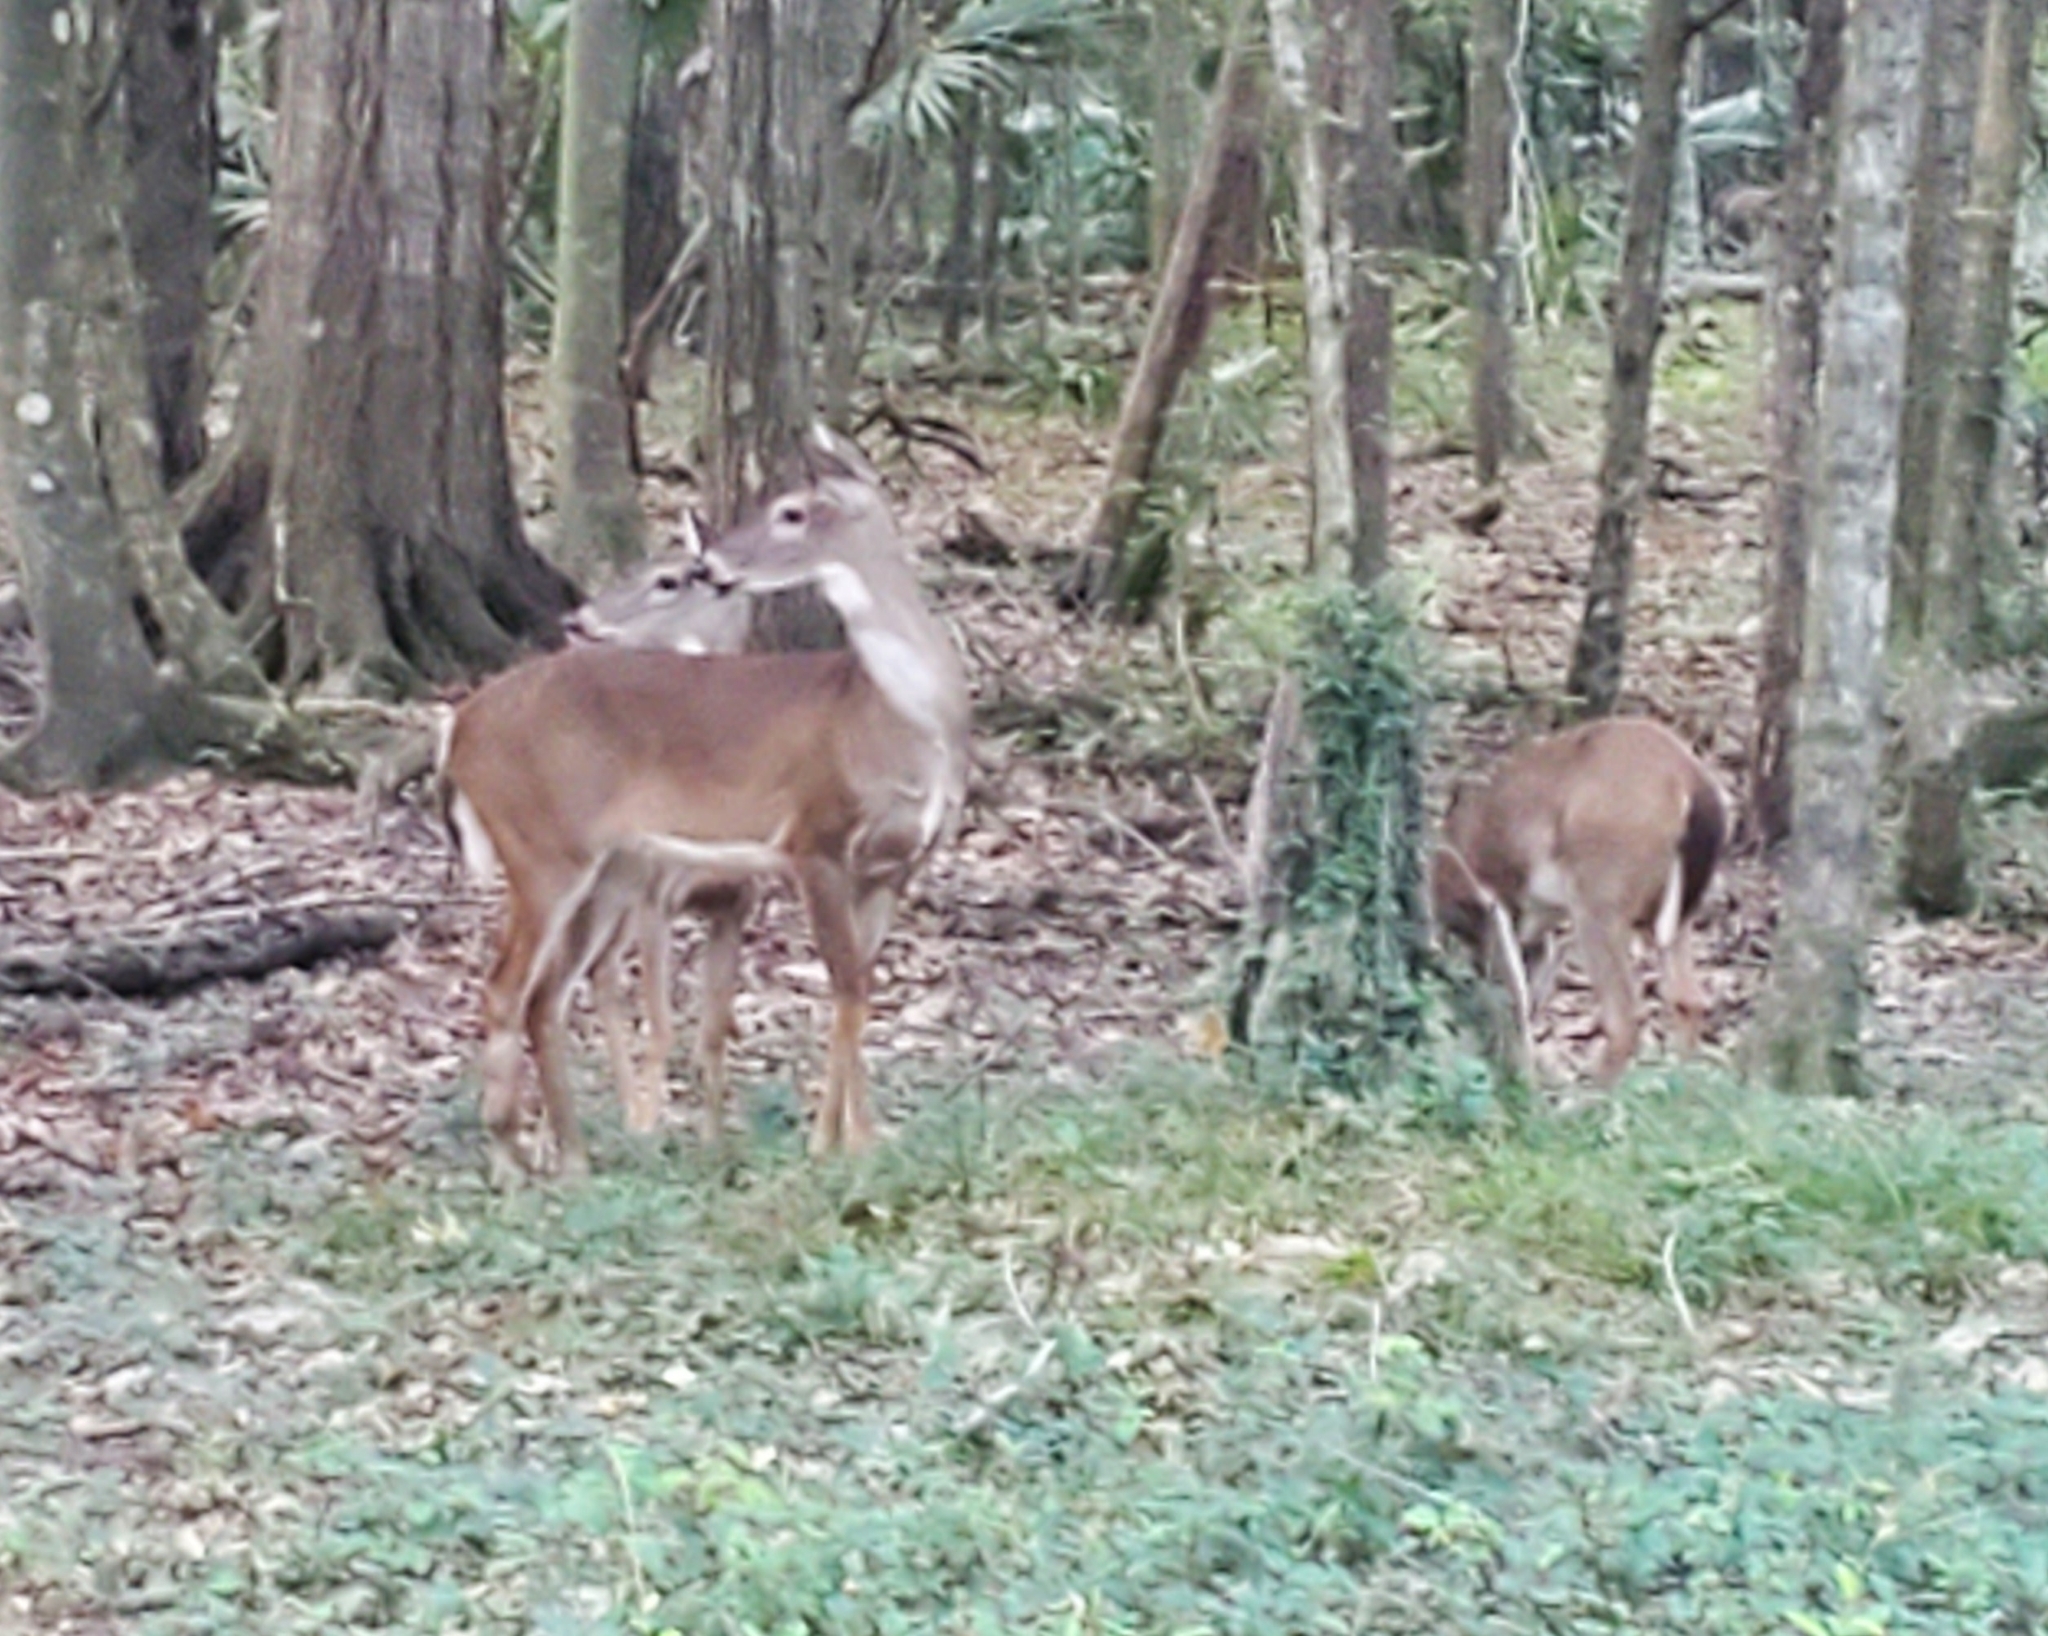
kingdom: Animalia
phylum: Chordata
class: Mammalia
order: Artiodactyla
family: Cervidae
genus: Odocoileus
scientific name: Odocoileus virginianus
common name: White-tailed deer
